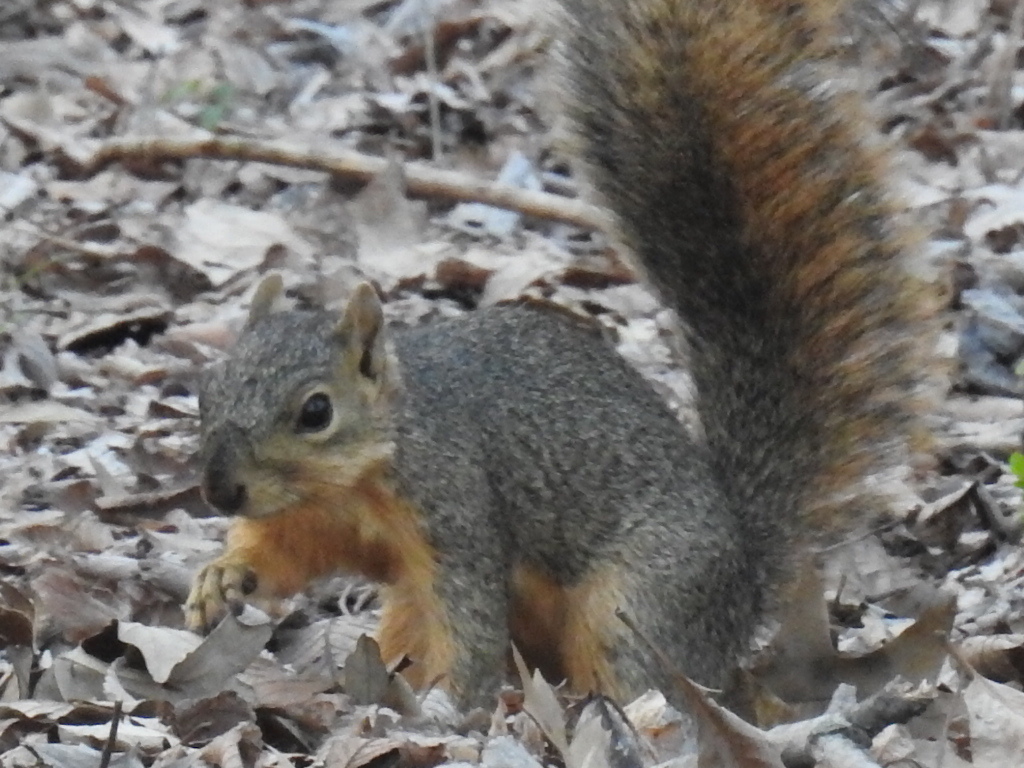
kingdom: Animalia
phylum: Chordata
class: Mammalia
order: Rodentia
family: Sciuridae
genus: Sciurus
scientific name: Sciurus niger
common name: Fox squirrel
